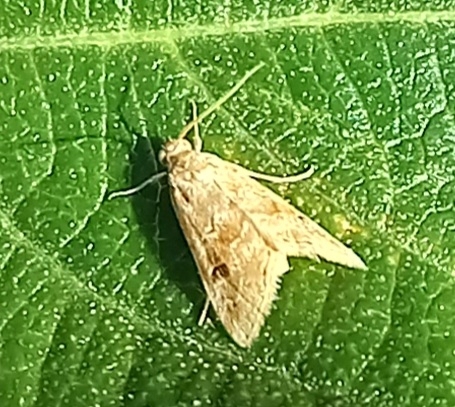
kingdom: Animalia
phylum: Arthropoda
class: Insecta
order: Lepidoptera
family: Crambidae
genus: Hellula
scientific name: Hellula undalis
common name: Cabbage webworm
